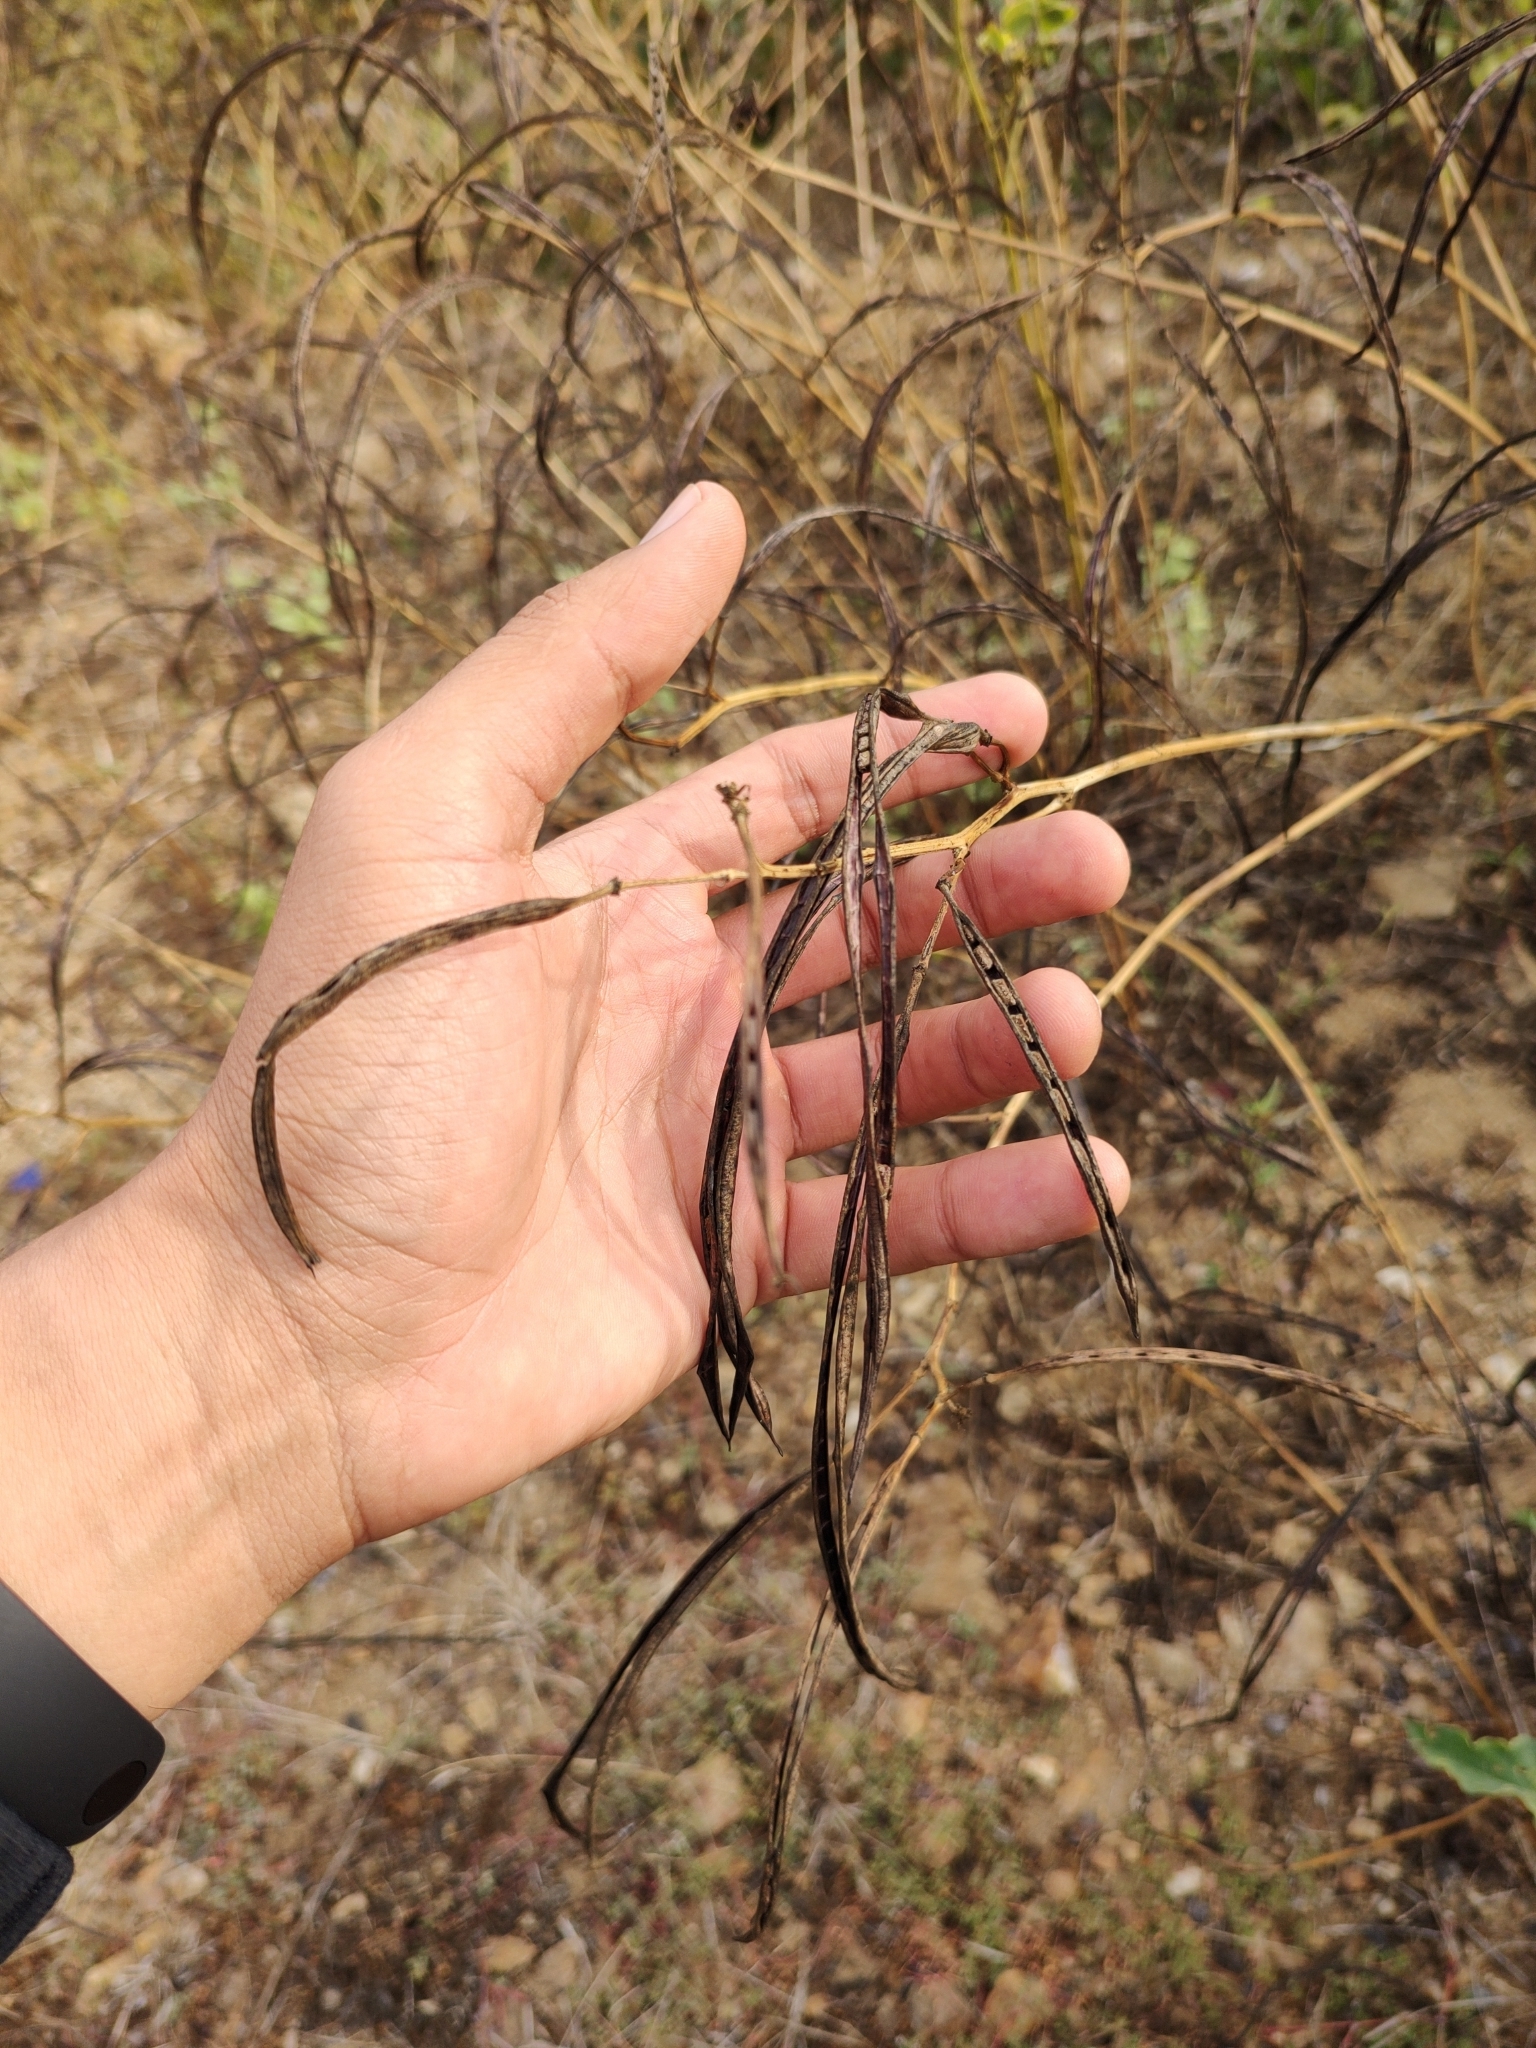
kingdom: Plantae
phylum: Tracheophyta
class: Magnoliopsida
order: Fabales
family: Fabaceae
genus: Senna
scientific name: Senna obtusifolia
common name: Java-bean
